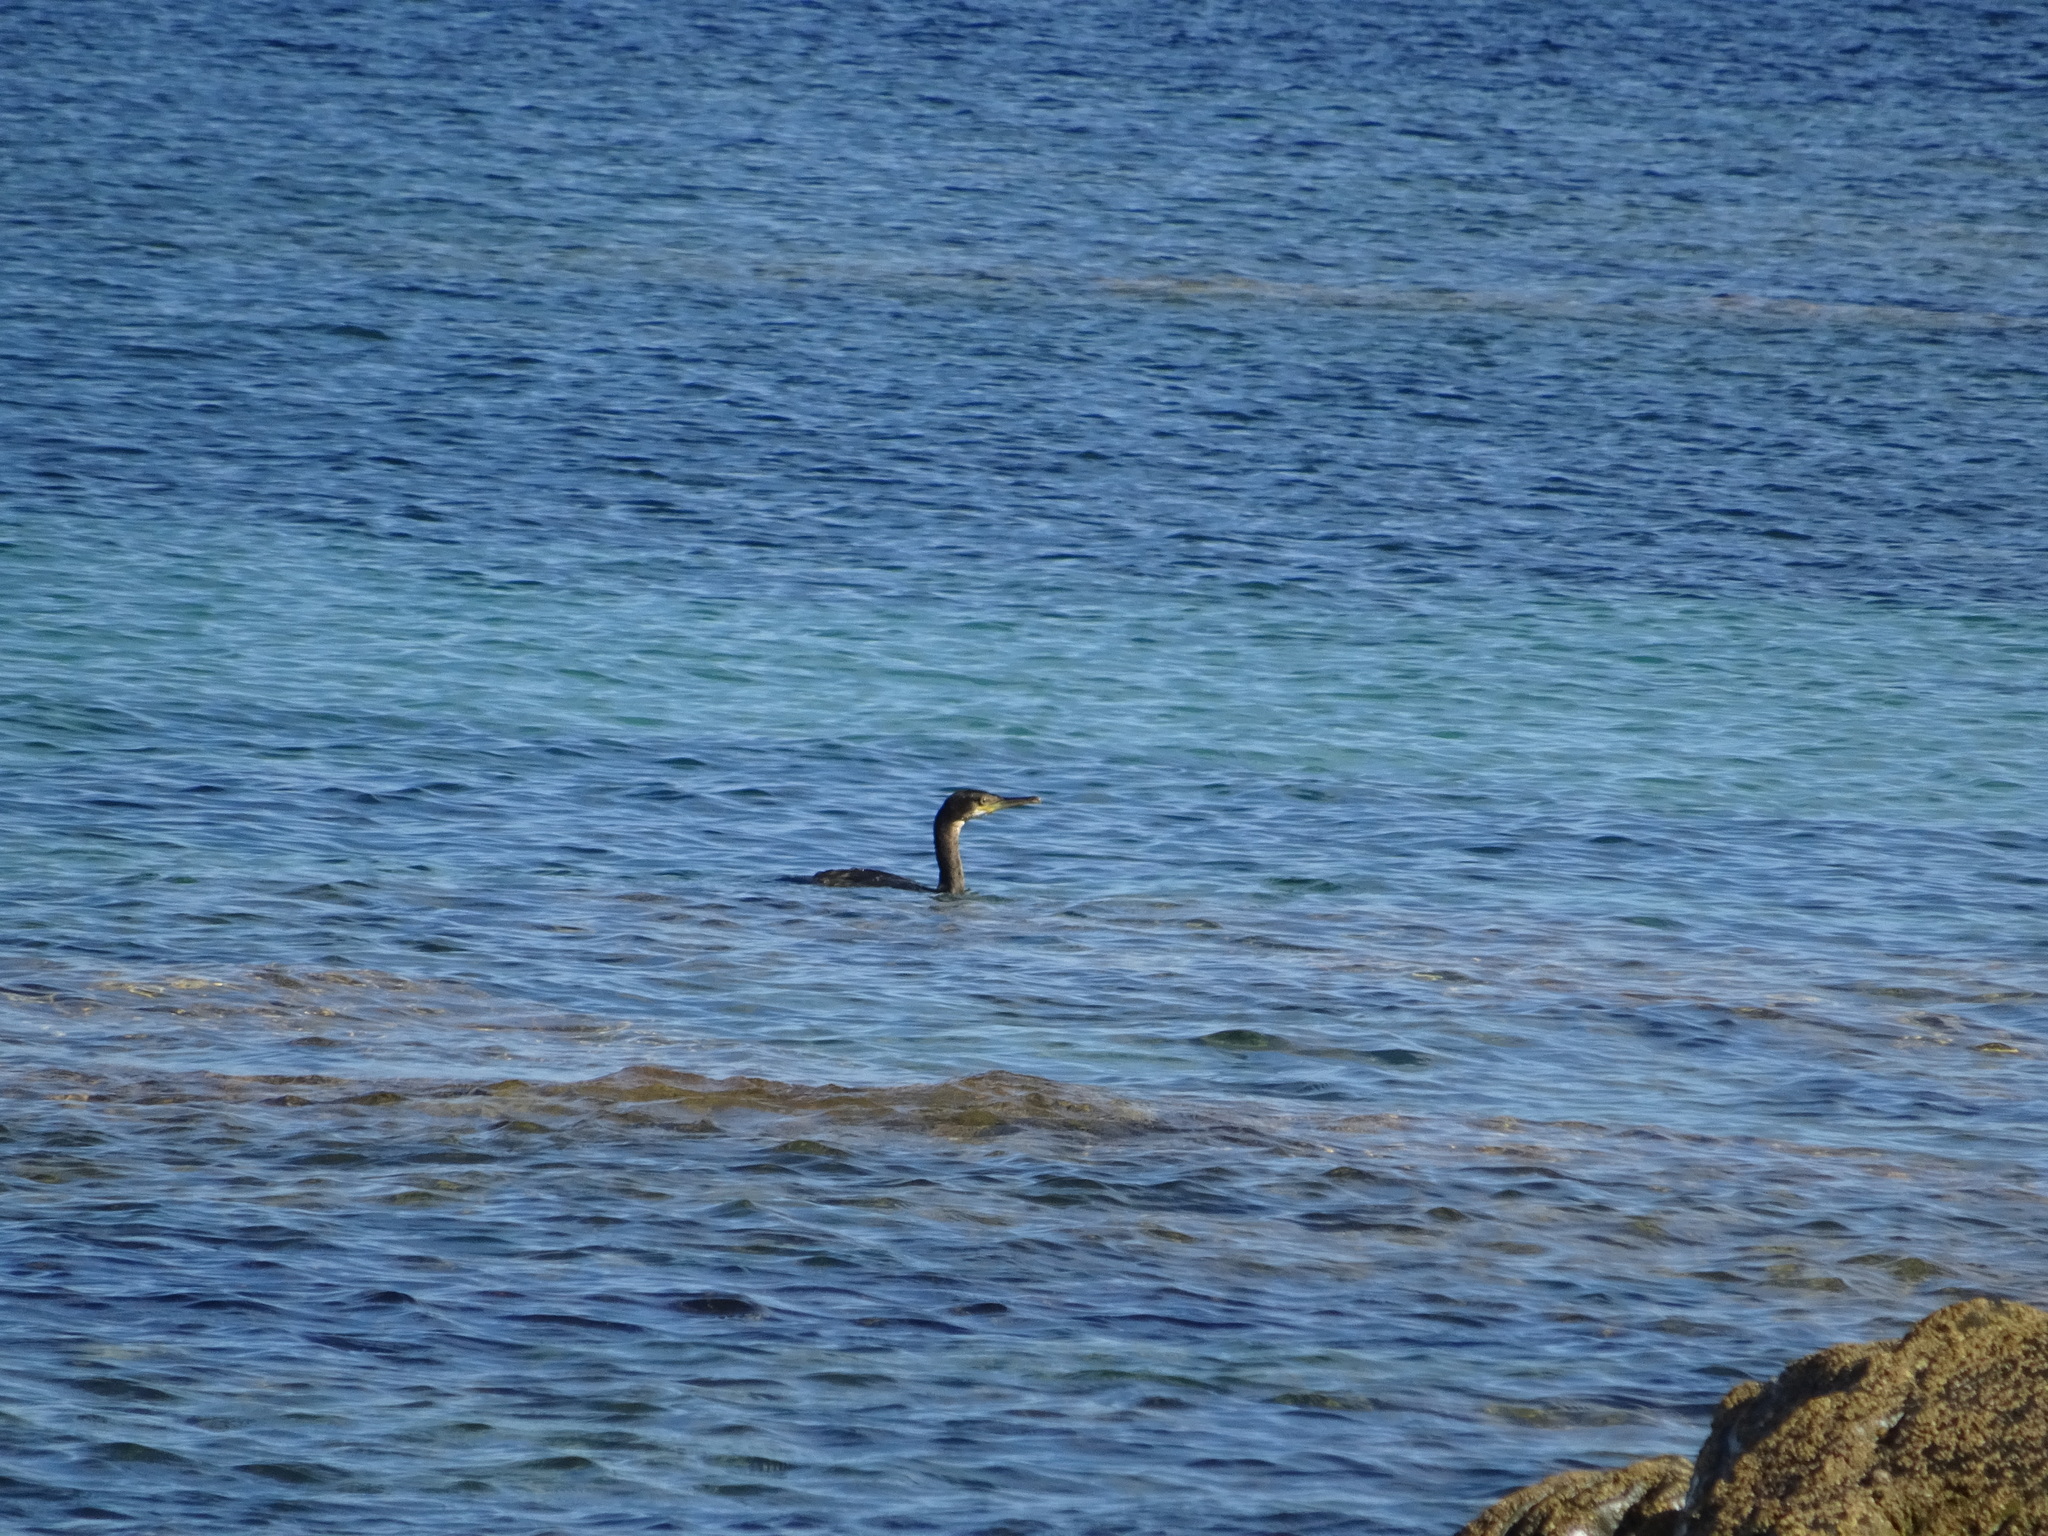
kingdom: Animalia
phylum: Chordata
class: Aves
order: Suliformes
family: Phalacrocoracidae
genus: Phalacrocorax
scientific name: Phalacrocorax aristotelis
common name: European shag
